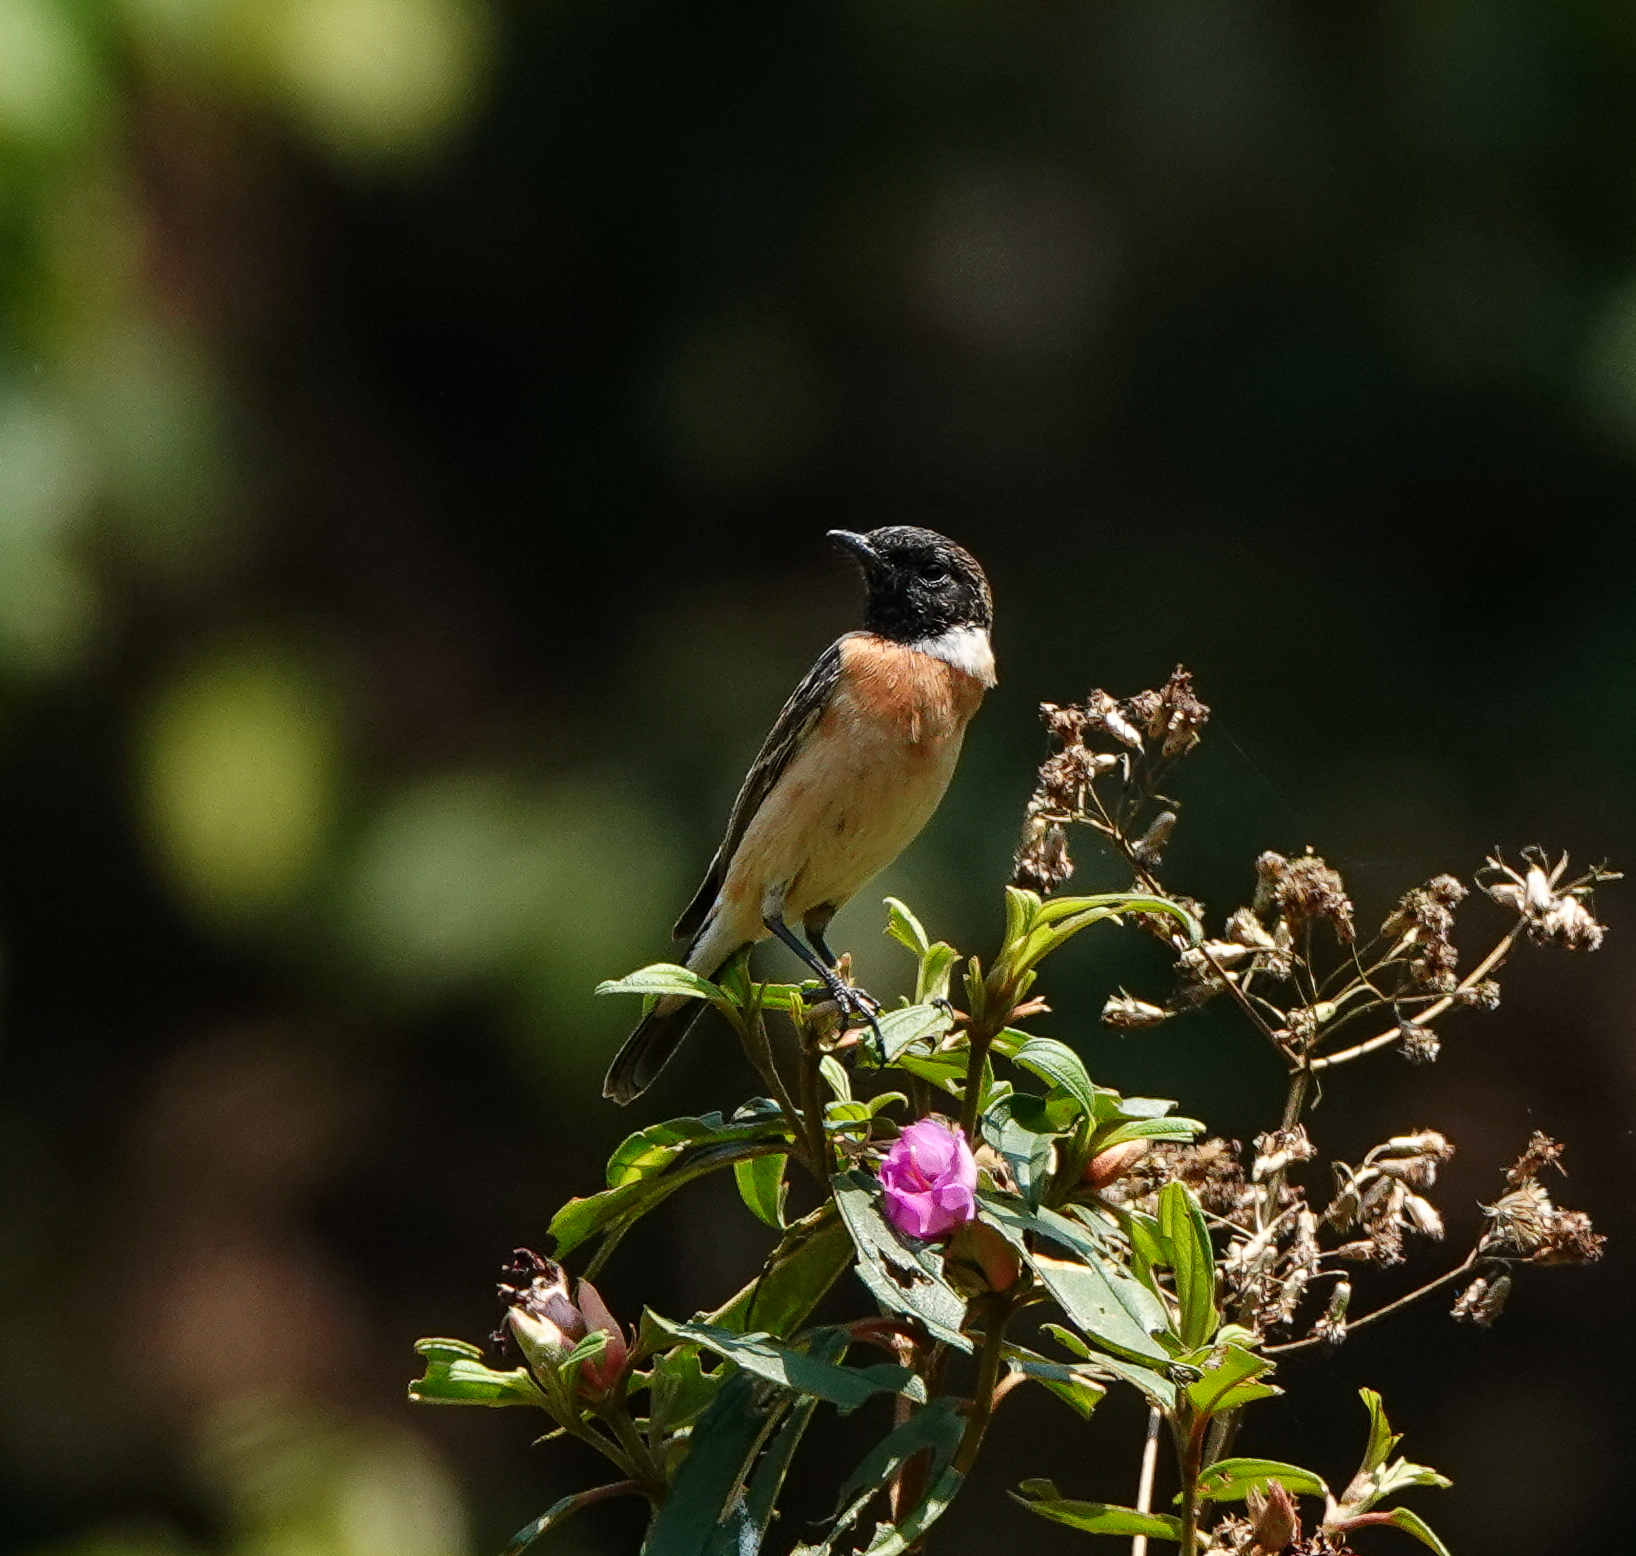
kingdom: Animalia
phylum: Chordata
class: Aves
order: Passeriformes
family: Muscicapidae
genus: Saxicola
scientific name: Saxicola maurus
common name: Siberian stonechat
